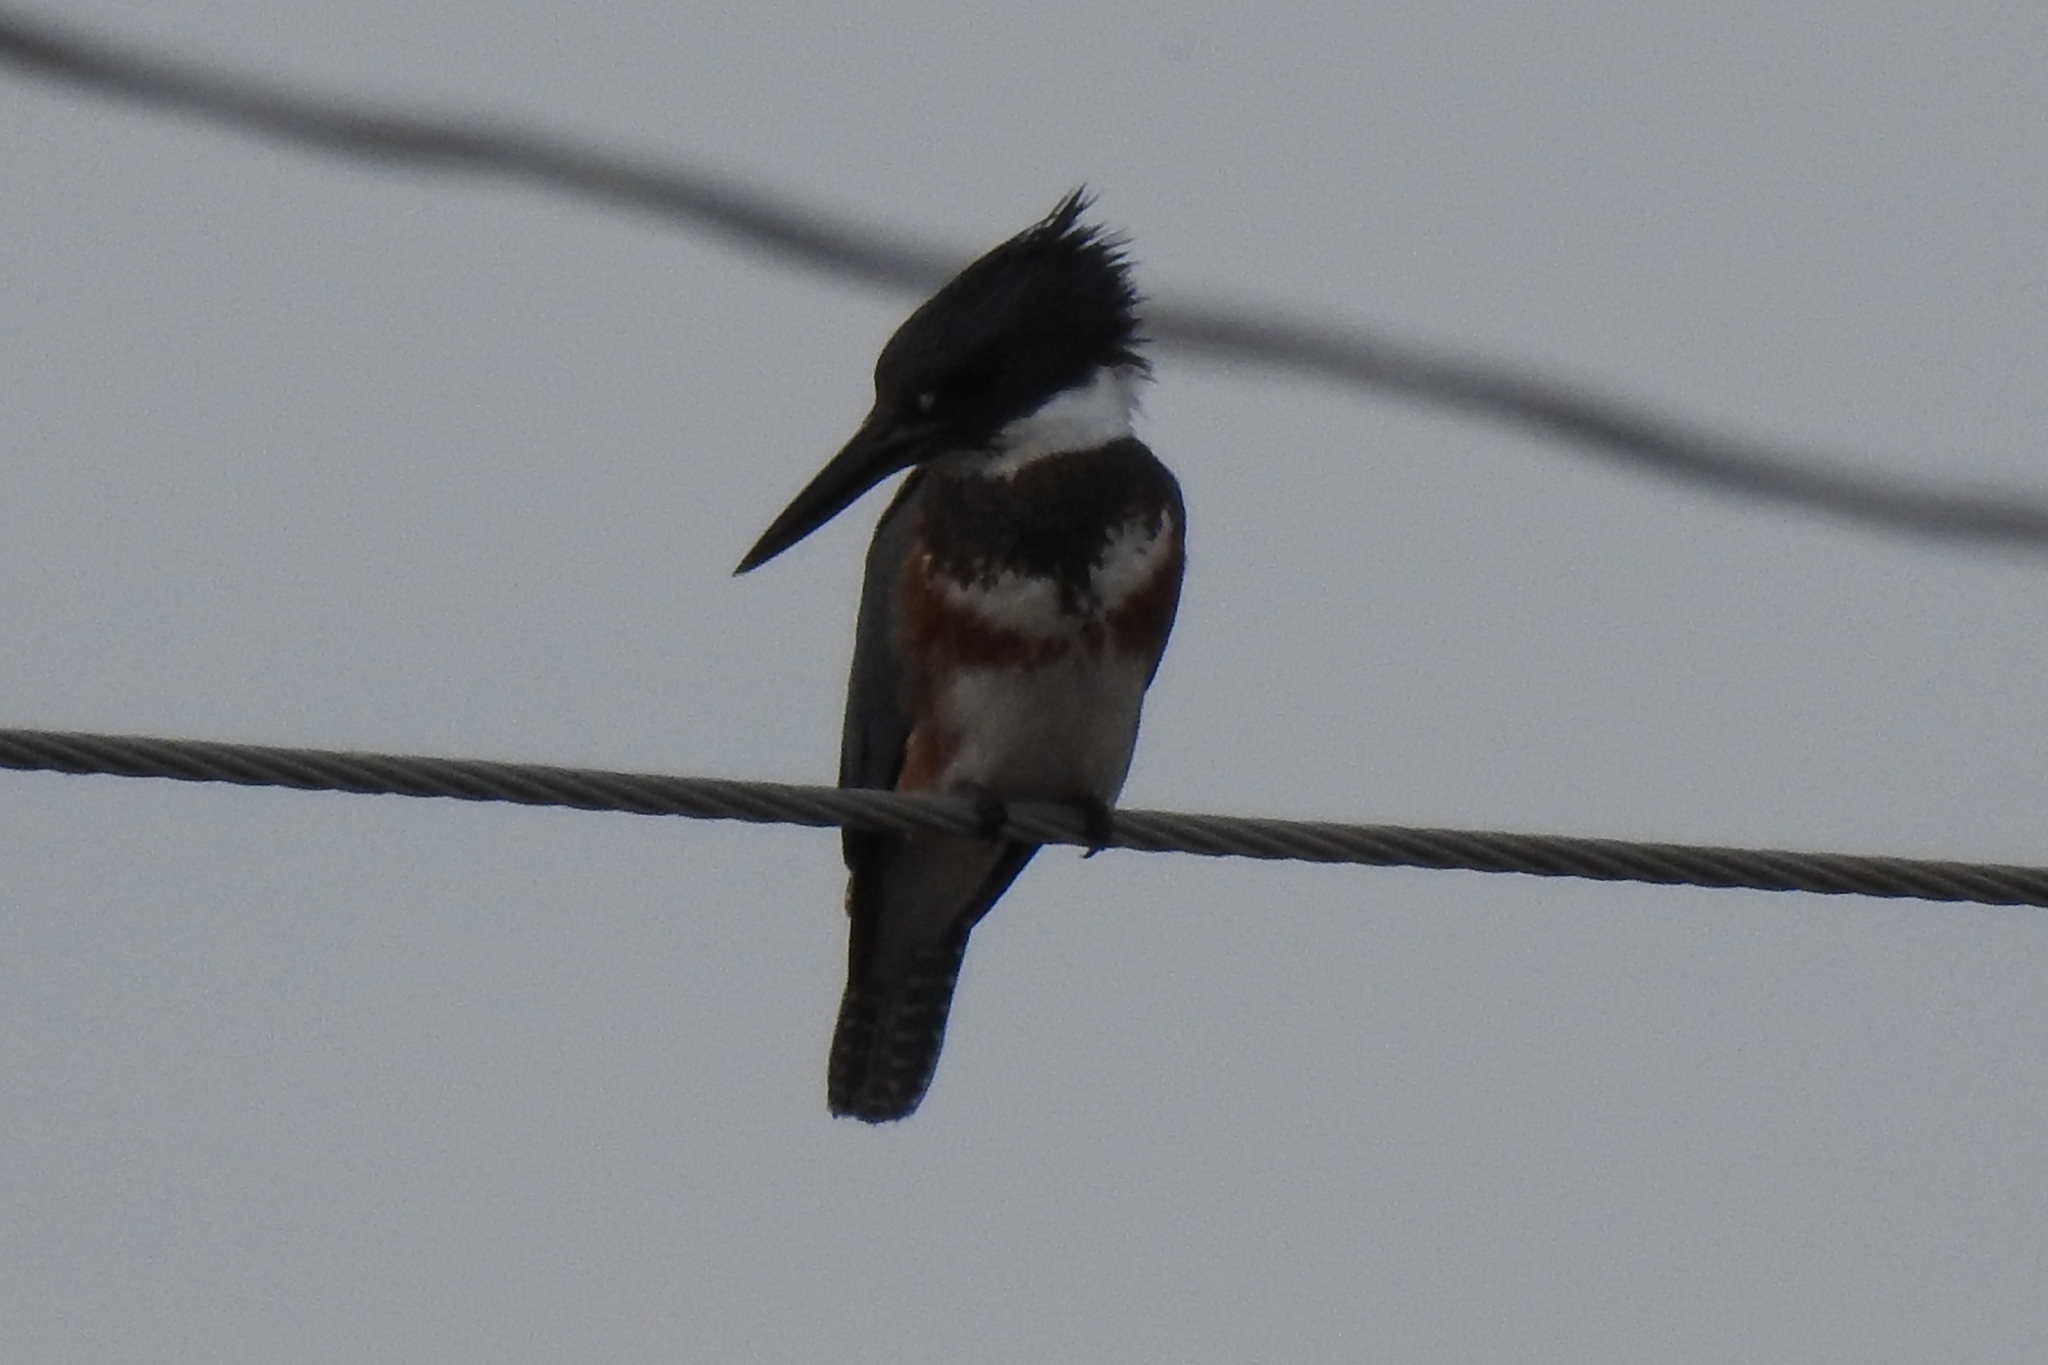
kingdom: Animalia
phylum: Chordata
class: Aves
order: Coraciiformes
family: Alcedinidae
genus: Megaceryle
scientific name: Megaceryle alcyon
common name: Belted kingfisher
